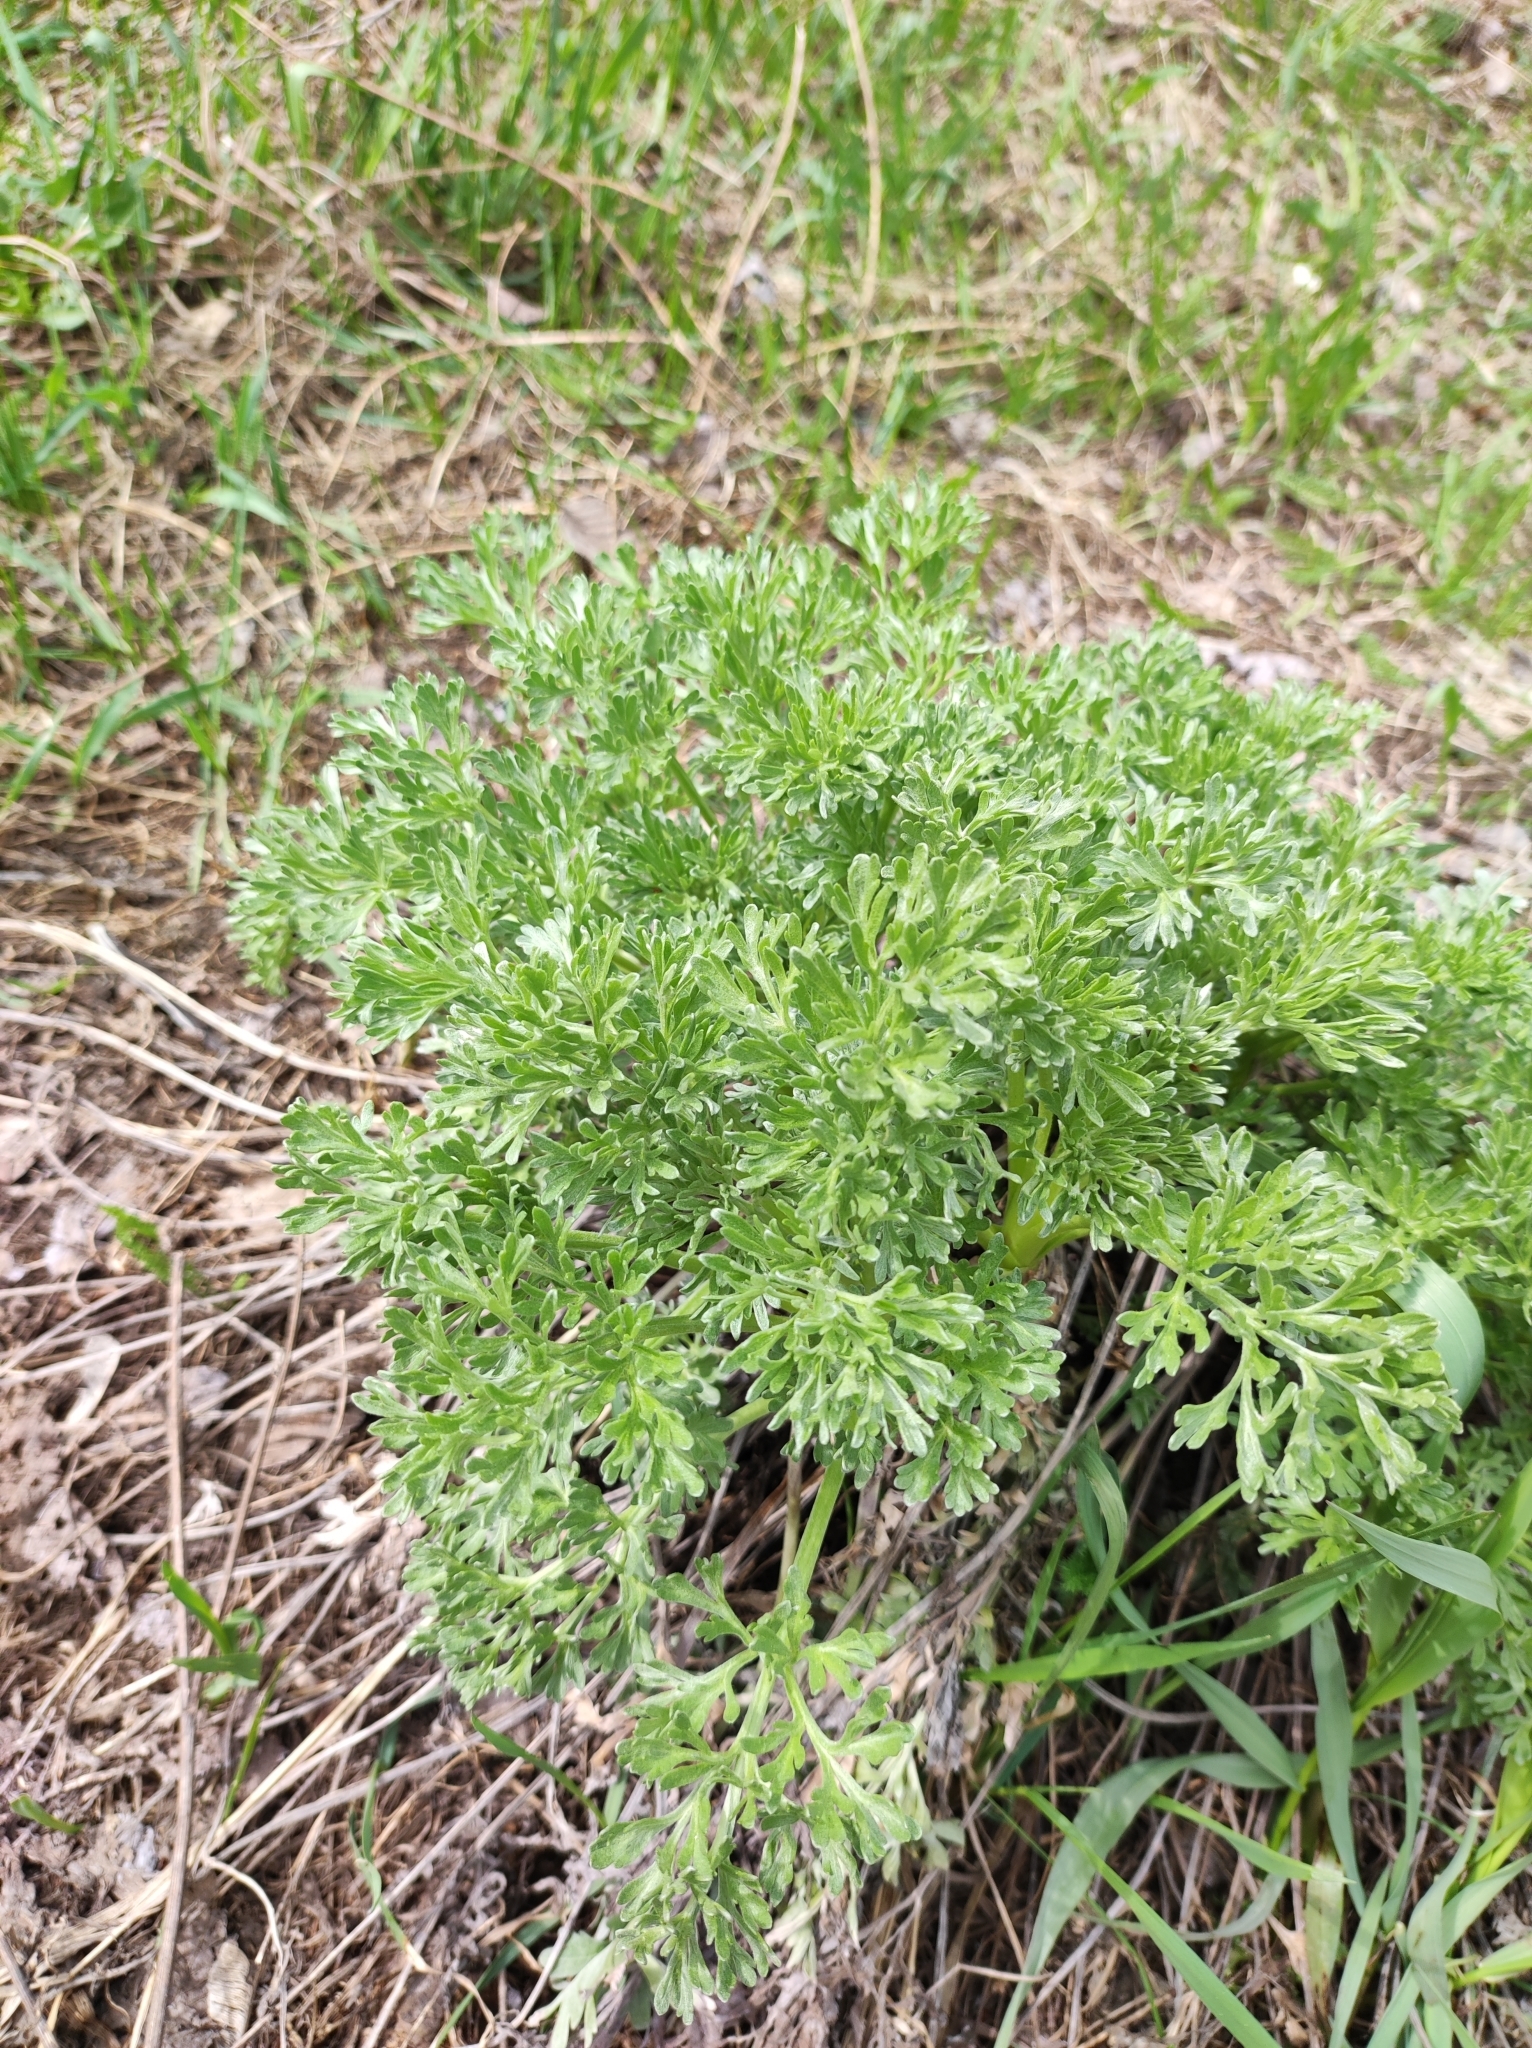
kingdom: Plantae
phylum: Tracheophyta
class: Magnoliopsida
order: Asterales
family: Asteraceae
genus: Artemisia
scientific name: Artemisia absinthium
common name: Wormwood
